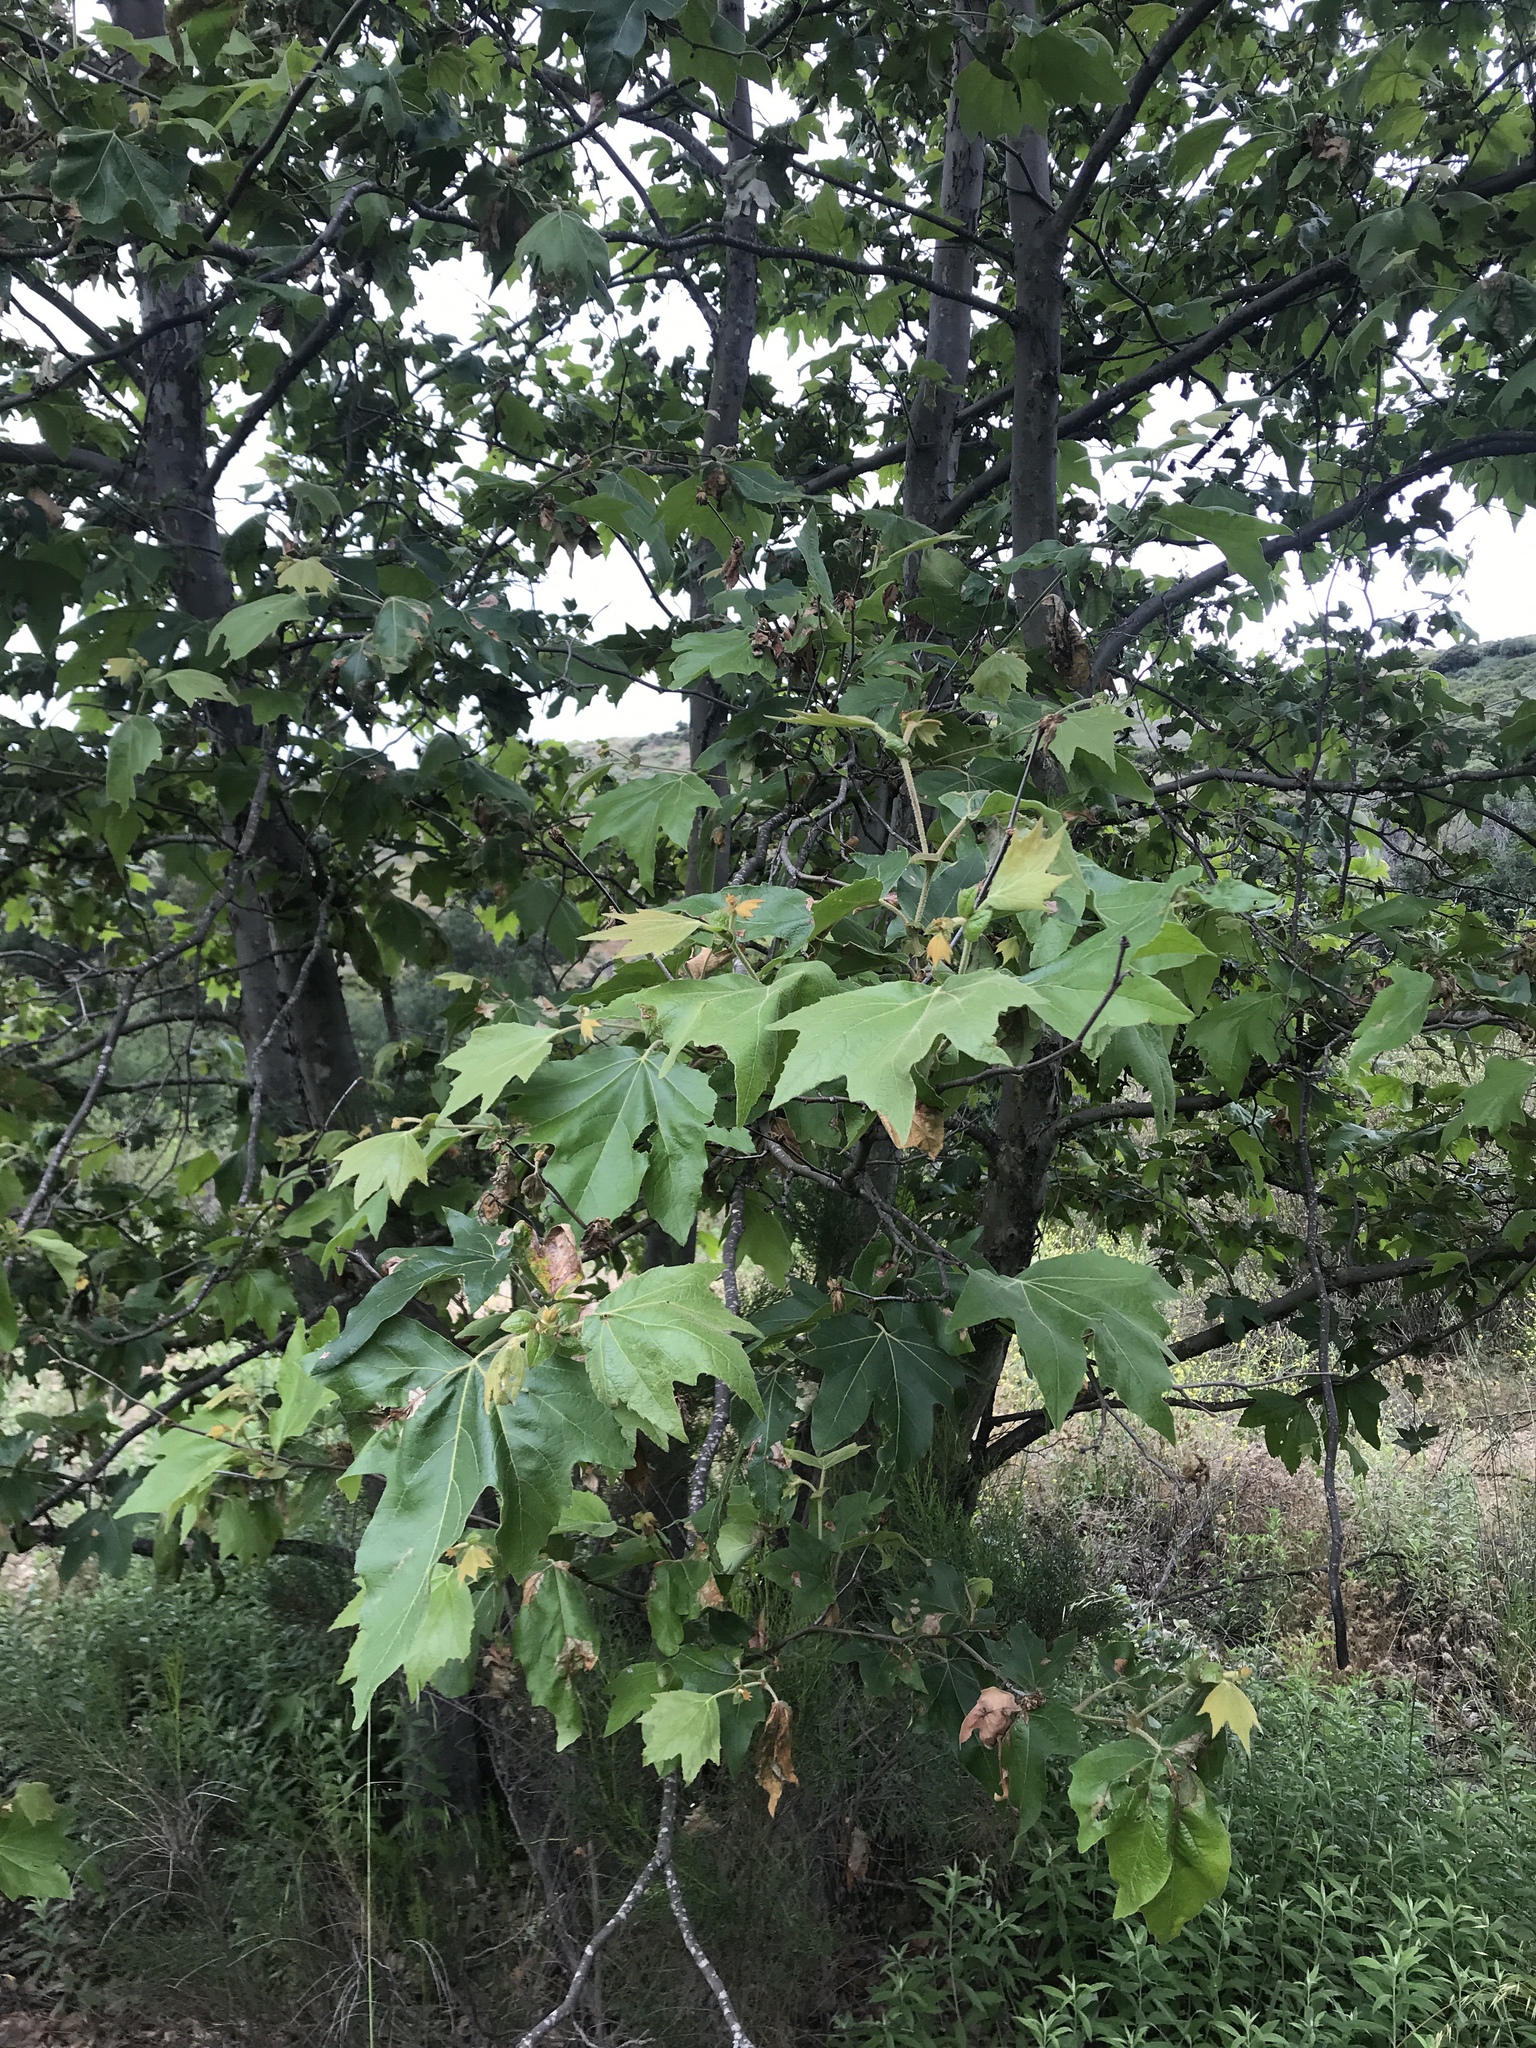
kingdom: Plantae
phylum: Tracheophyta
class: Magnoliopsida
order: Proteales
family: Platanaceae
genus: Platanus
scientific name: Platanus racemosa
